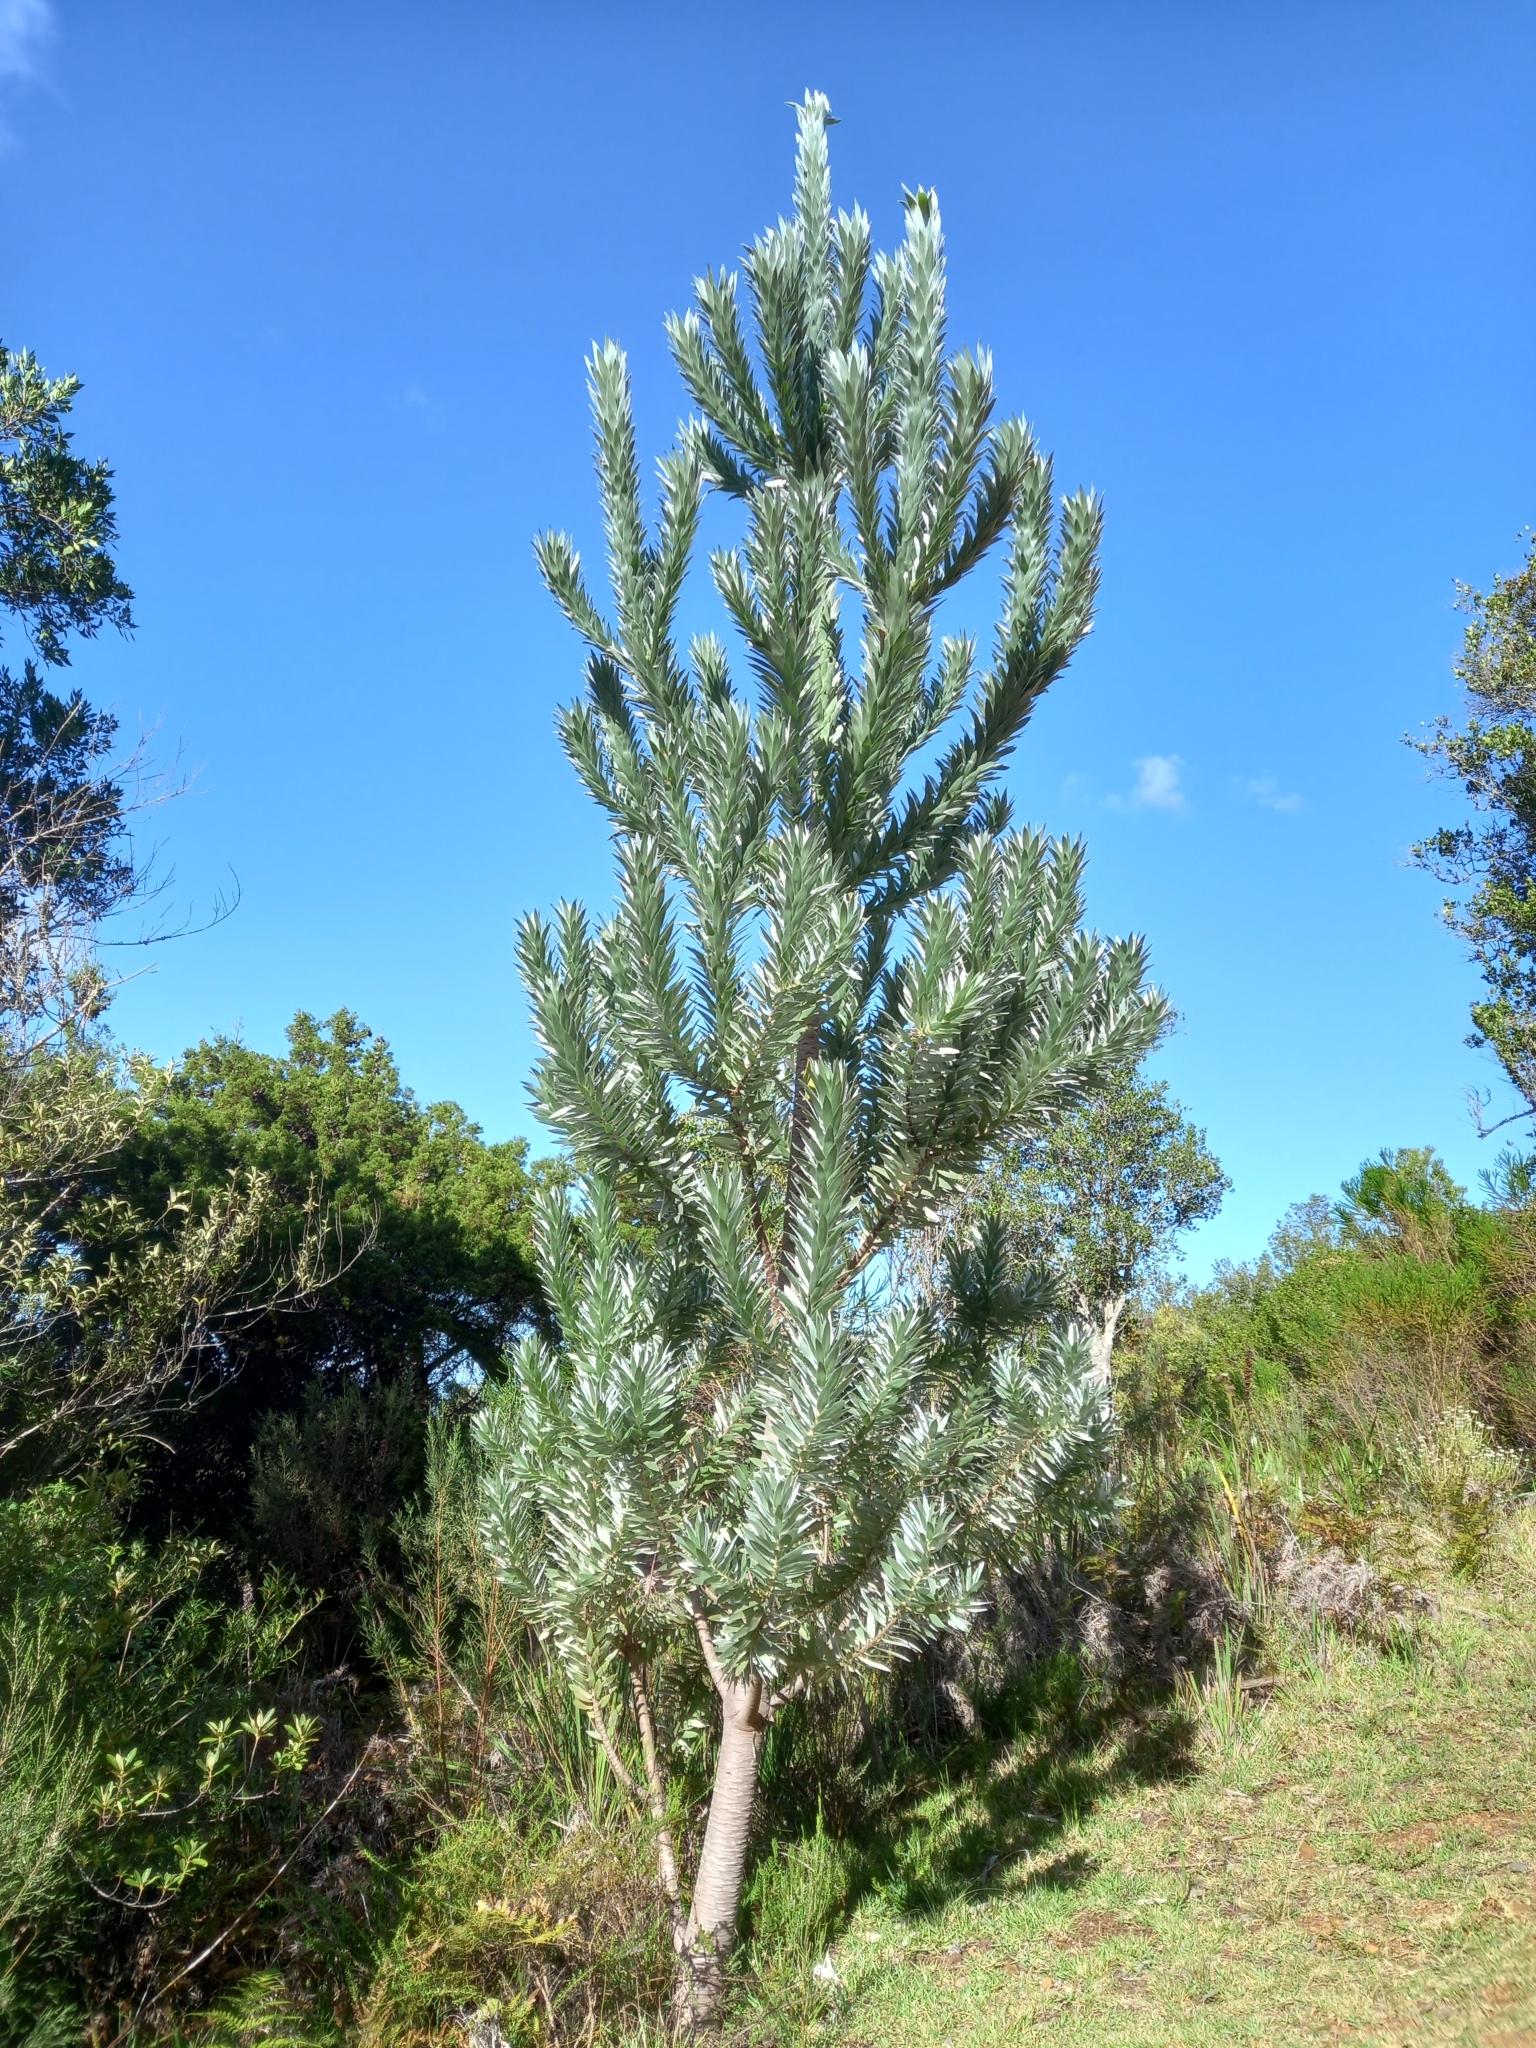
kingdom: Plantae
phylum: Tracheophyta
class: Magnoliopsida
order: Proteales
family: Proteaceae
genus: Leucadendron
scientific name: Leucadendron argenteum
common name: Cape silver tree
